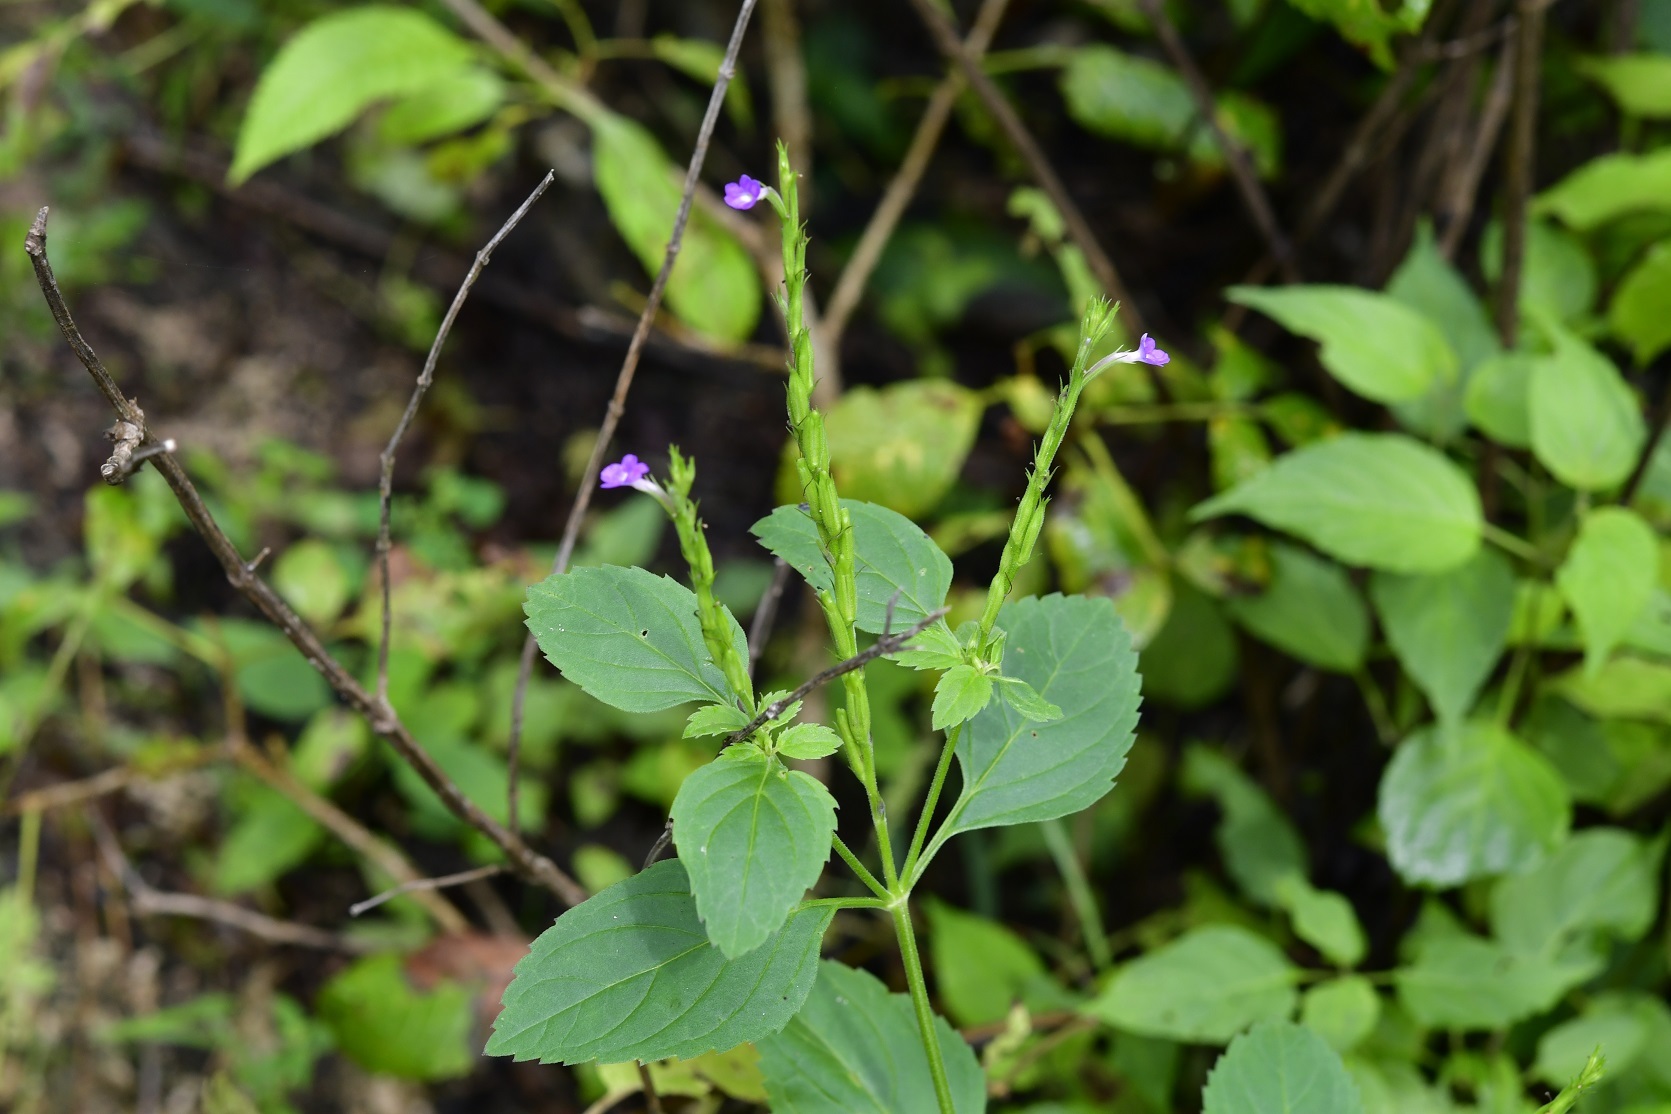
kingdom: Plantae
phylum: Tracheophyta
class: Magnoliopsida
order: Lamiales
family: Verbenaceae
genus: Bouchea
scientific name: Bouchea prismatica
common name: Vervine
